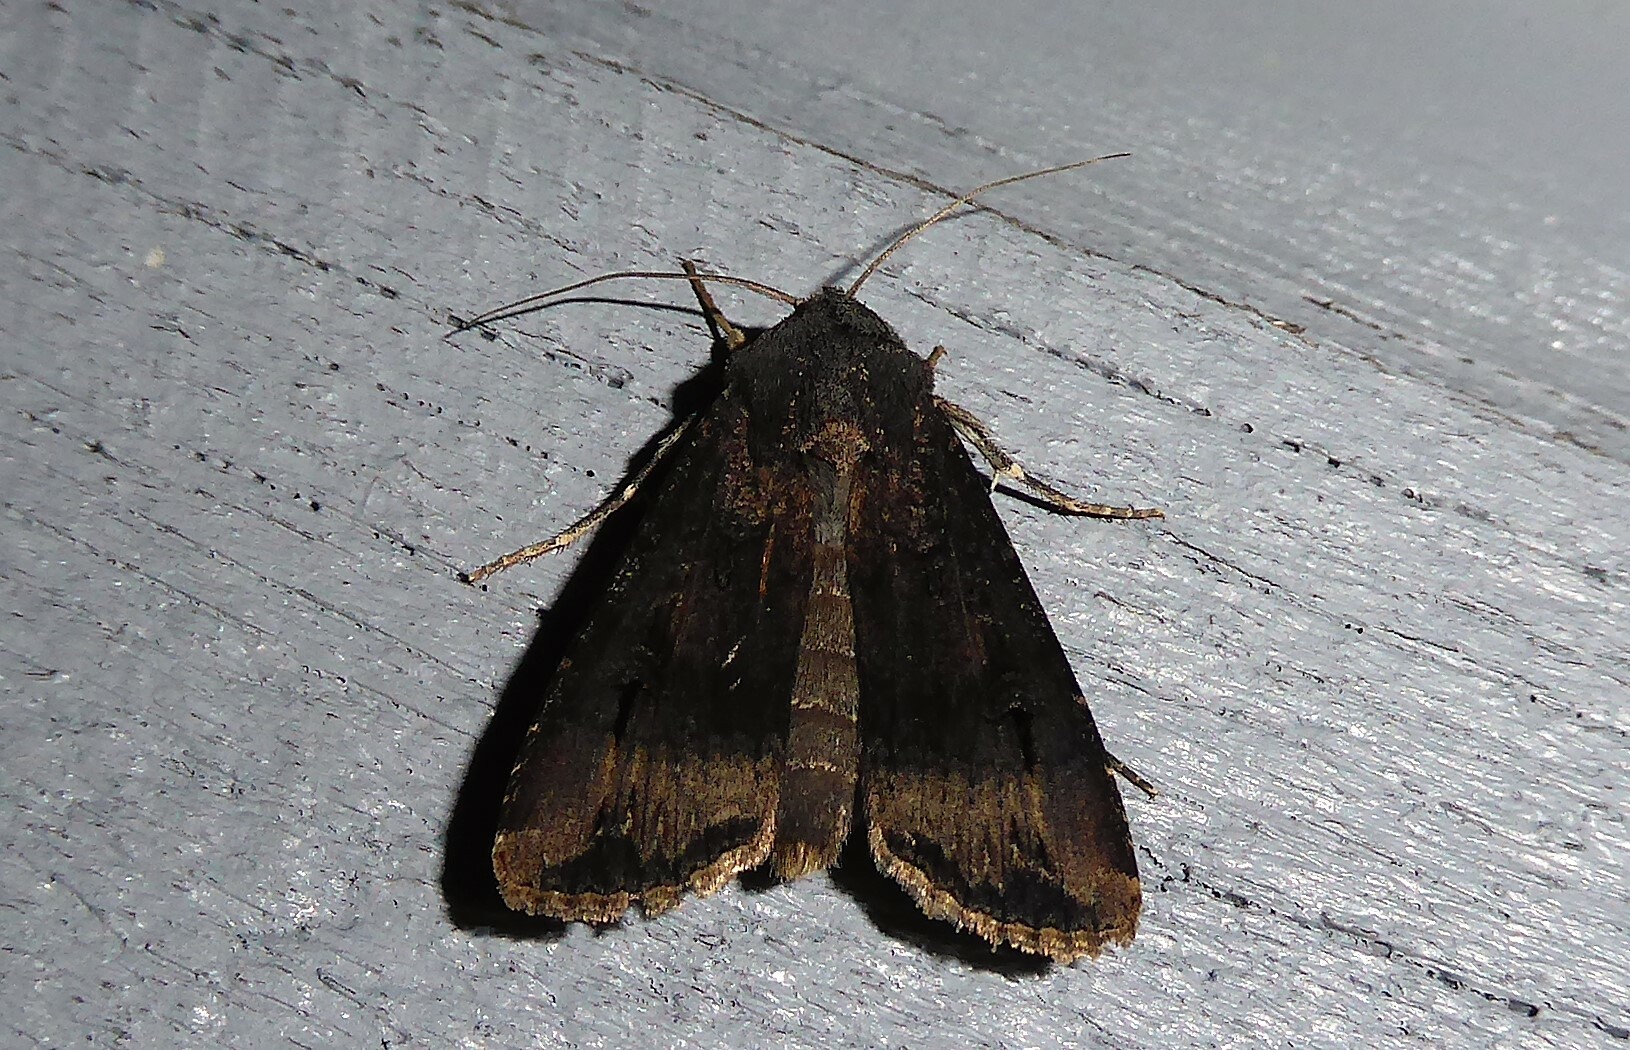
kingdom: Animalia
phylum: Arthropoda
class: Insecta
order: Lepidoptera
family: Noctuidae
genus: Agrotis
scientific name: Agrotis ipsilon
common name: Dark sword-grass
